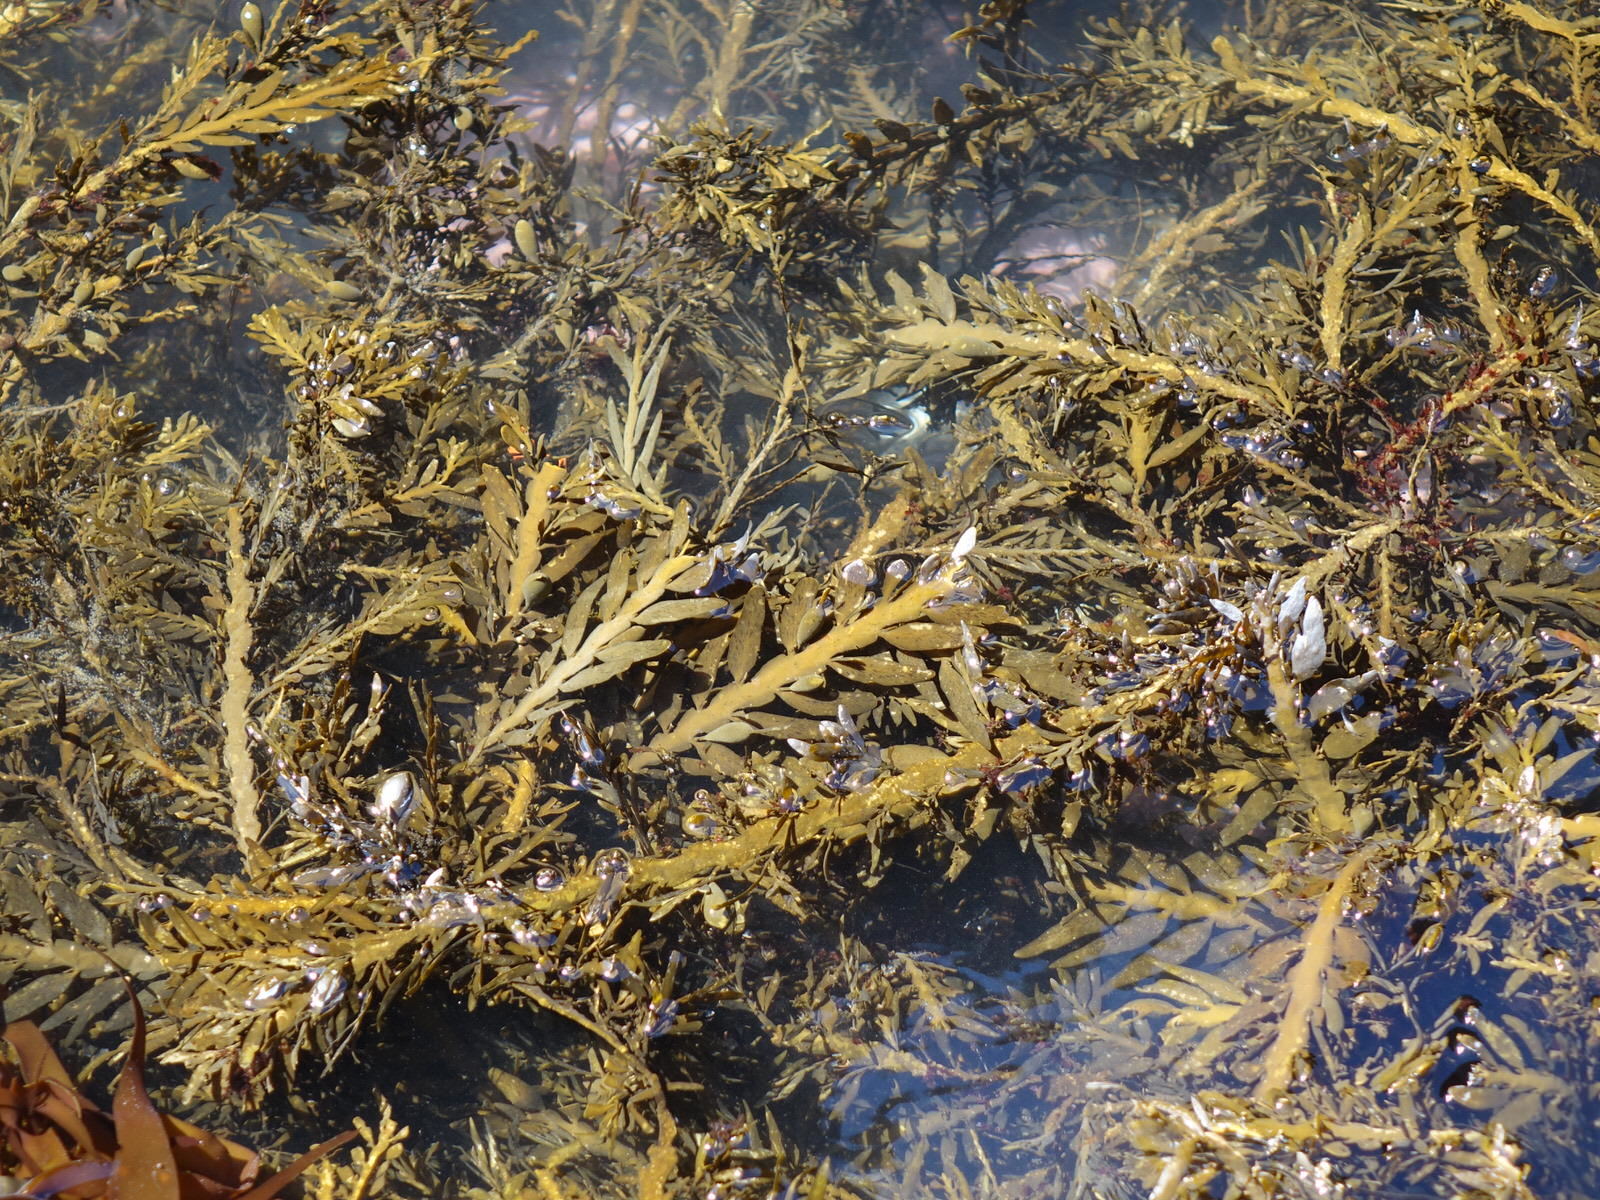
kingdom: Chromista
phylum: Ochrophyta
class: Phaeophyceae
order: Fucales
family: Sargassaceae
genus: Carpophyllum
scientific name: Carpophyllum maschalocarpum
